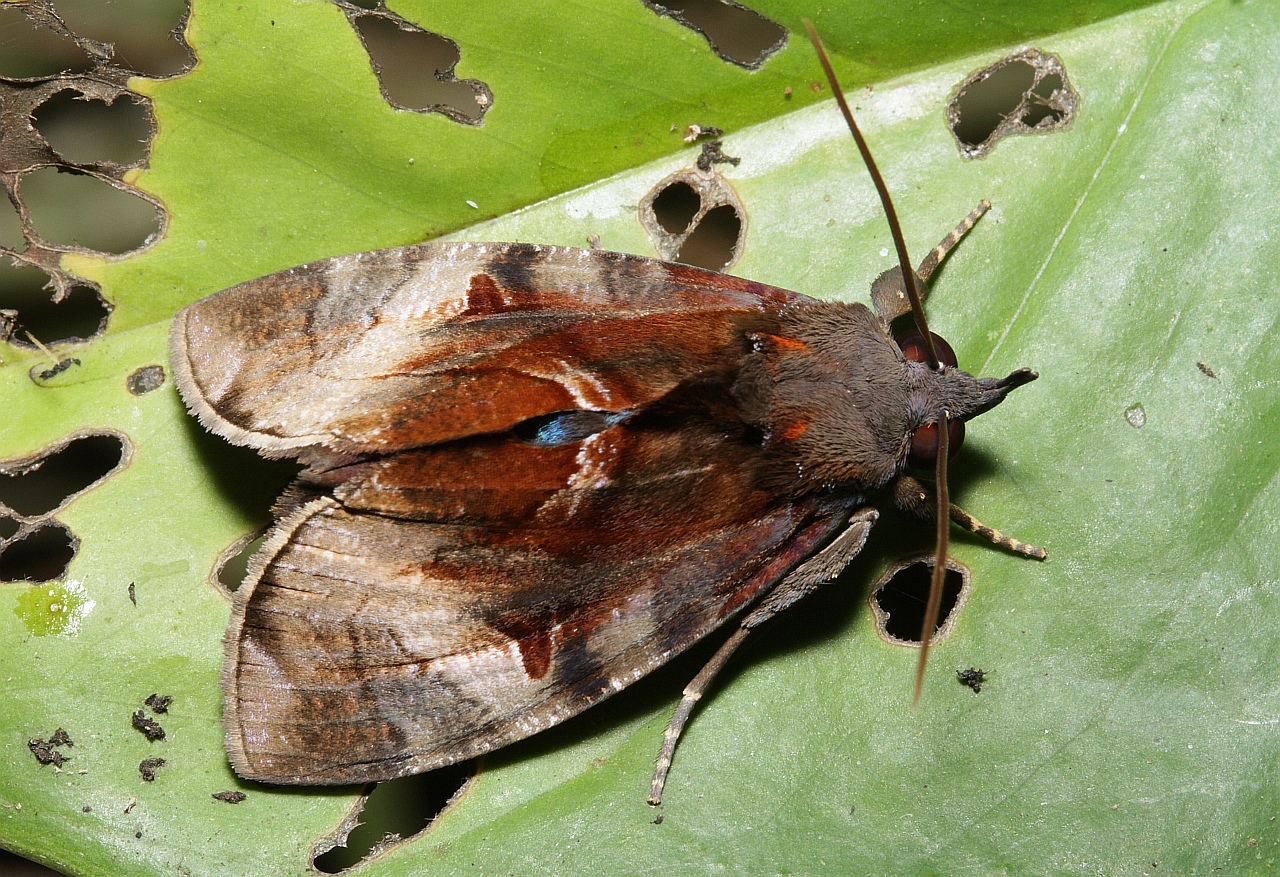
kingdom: Animalia
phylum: Arthropoda
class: Insecta
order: Lepidoptera
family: Erebidae
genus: Ferenta
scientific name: Ferenta stolliana
